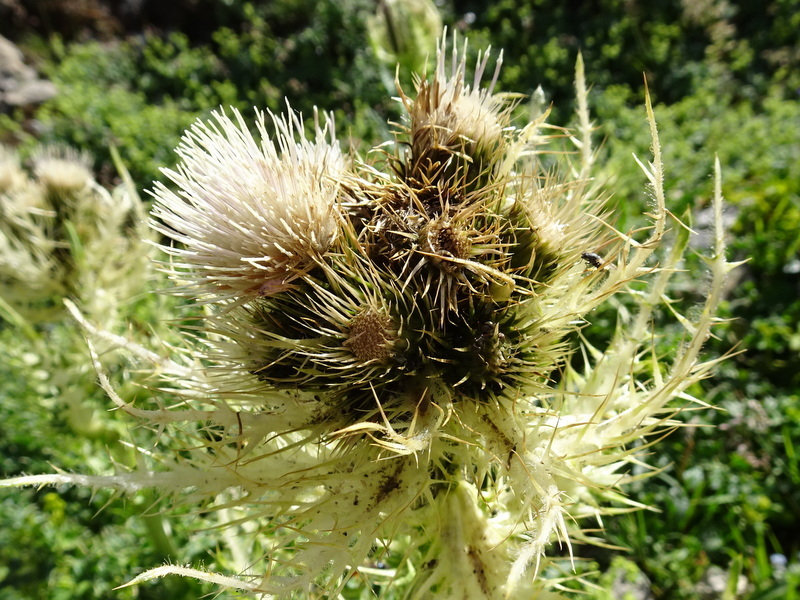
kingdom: Plantae
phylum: Tracheophyta
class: Magnoliopsida
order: Asterales
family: Asteraceae
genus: Cirsium
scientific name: Cirsium spinosissimum
